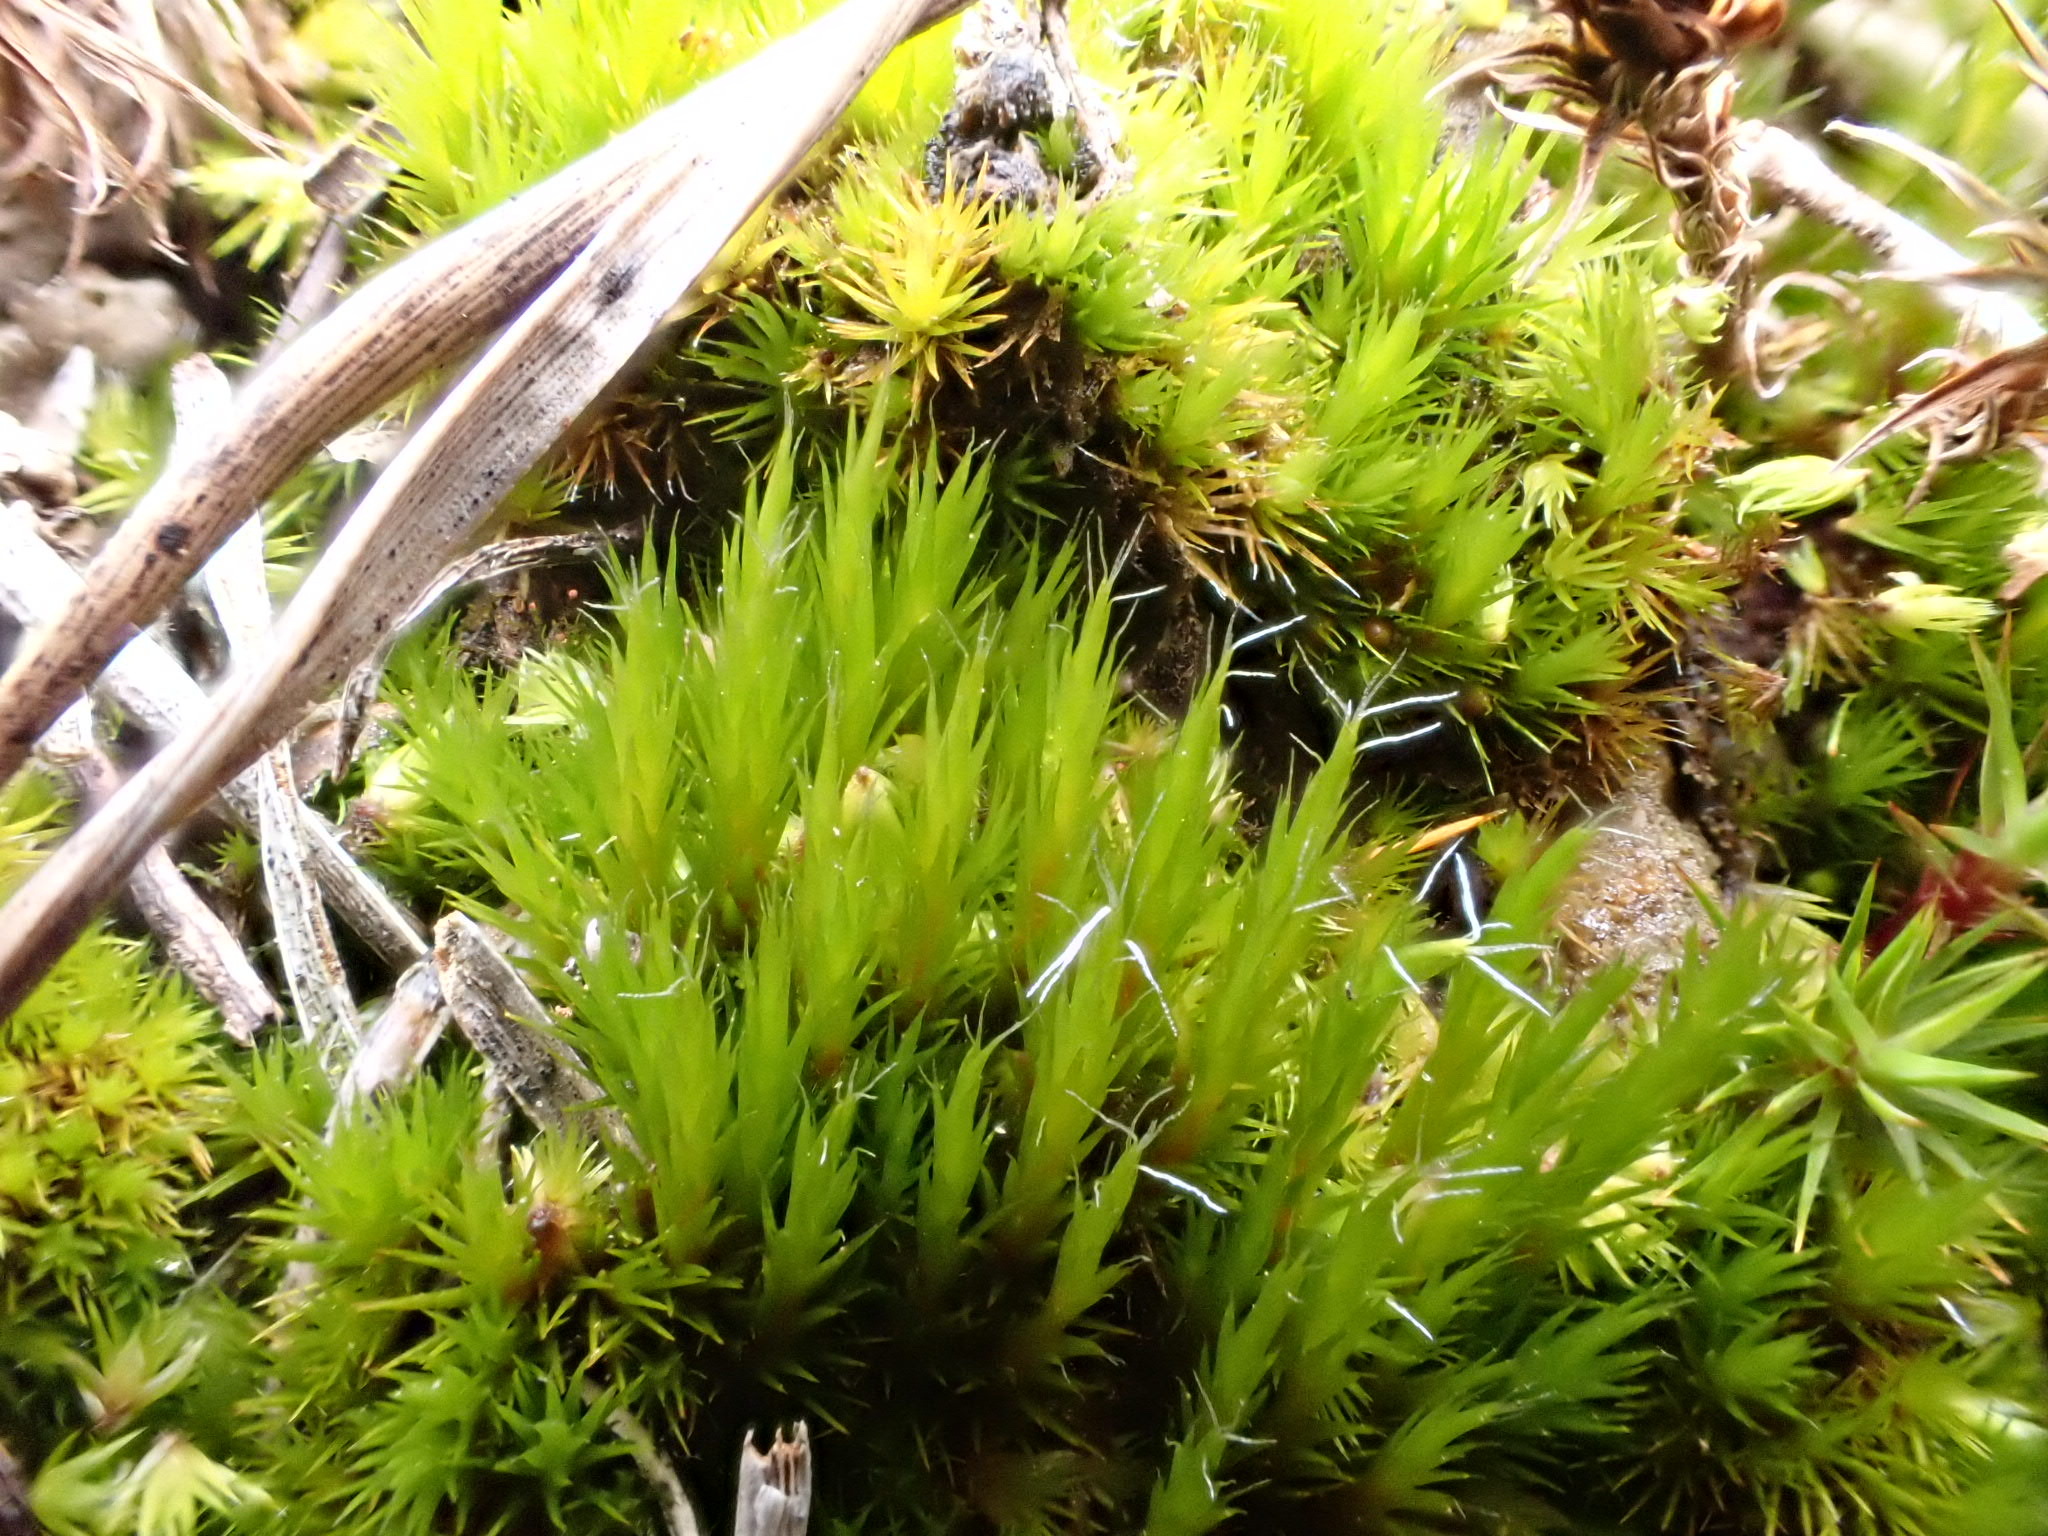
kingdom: Plantae
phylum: Bryophyta
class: Bryopsida
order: Dicranales
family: Leucobryaceae
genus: Campylopus
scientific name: Campylopus introflexus
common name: Heath star moss
